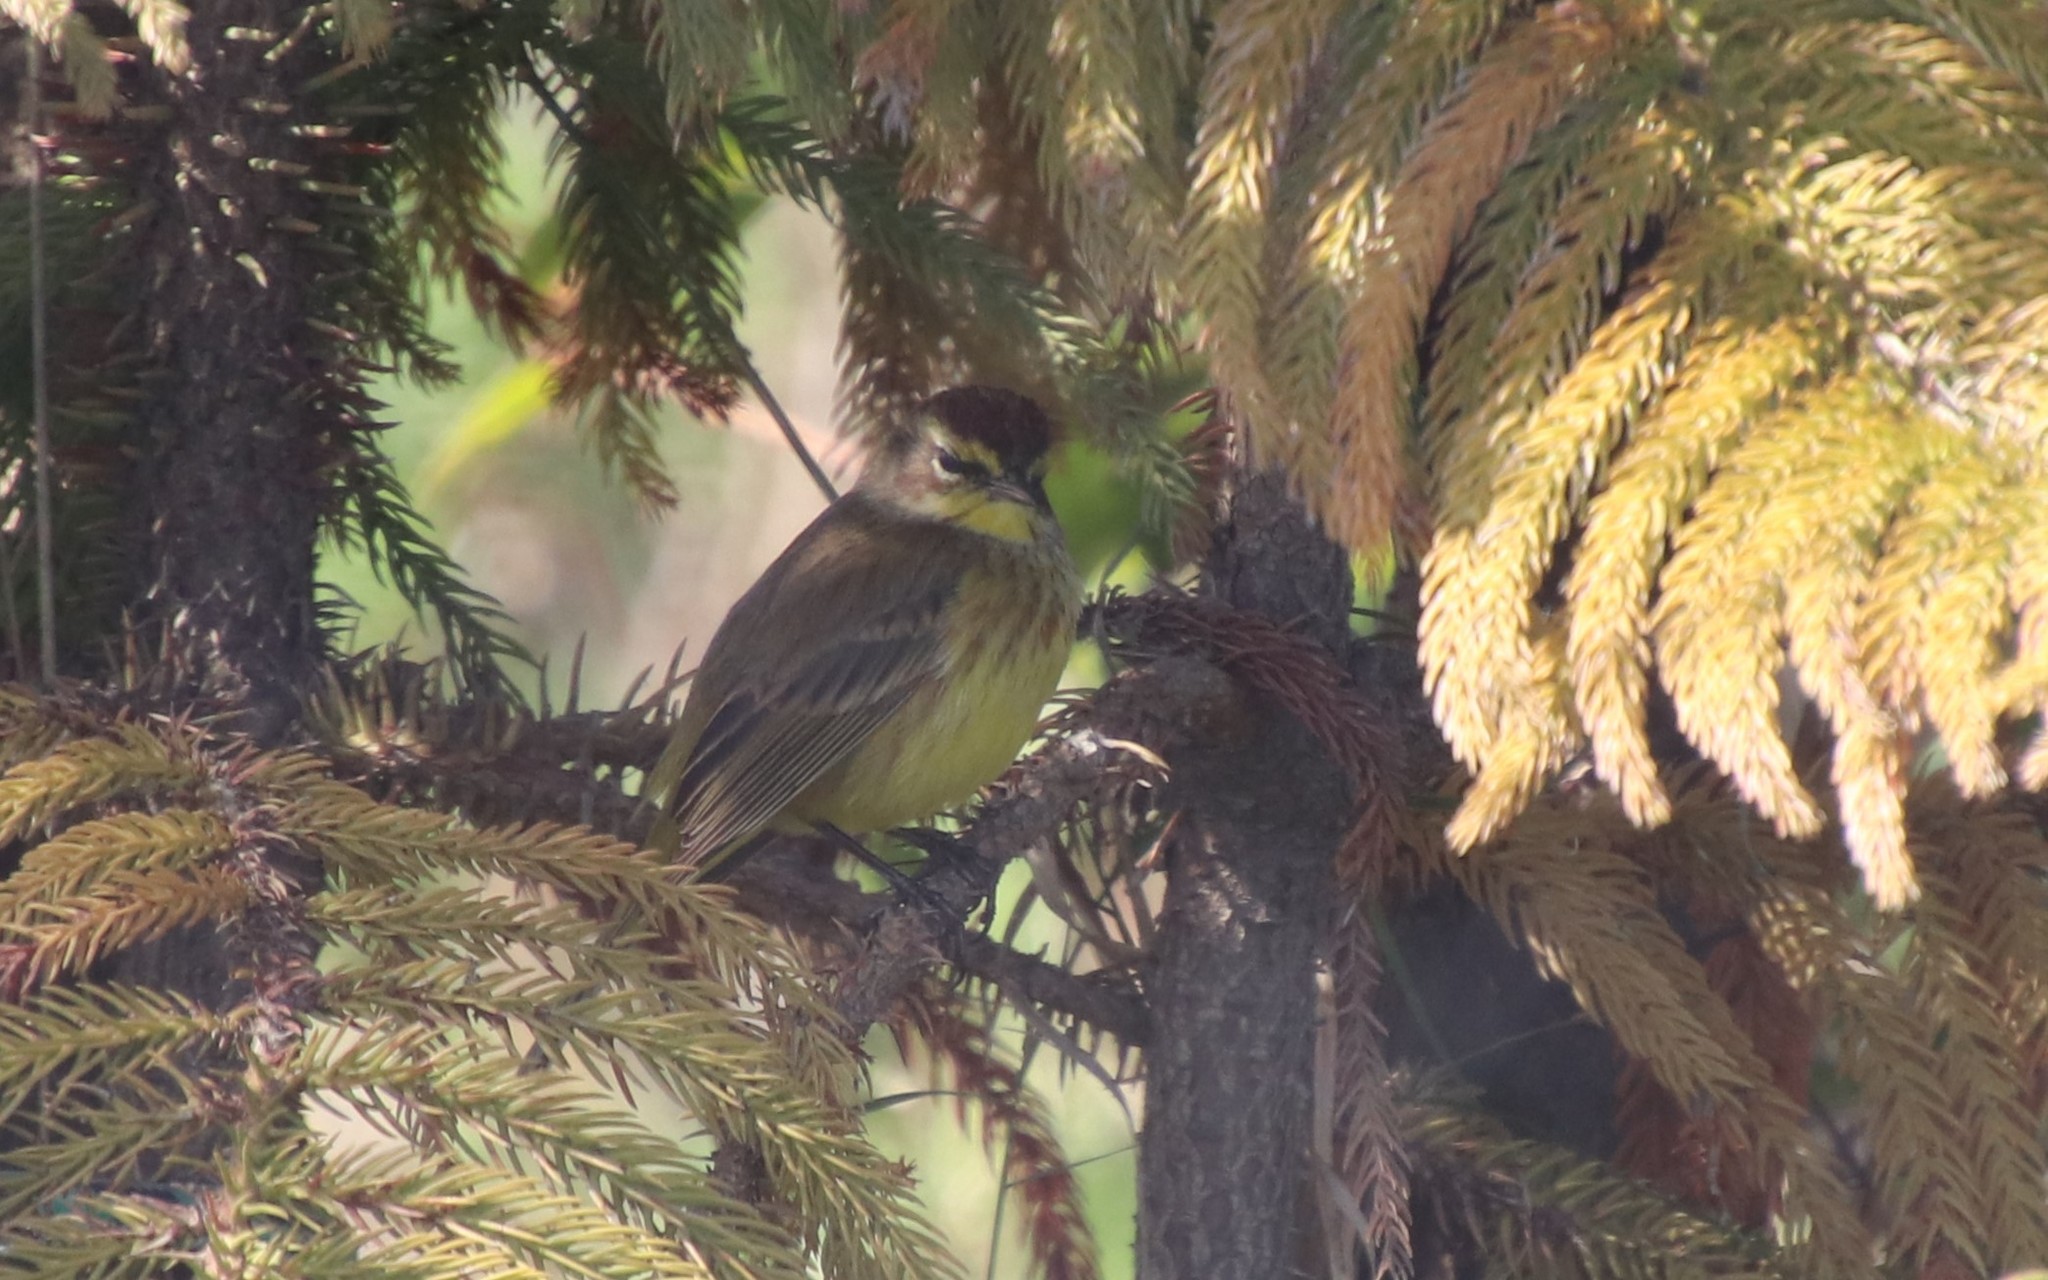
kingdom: Animalia
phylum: Chordata
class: Aves
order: Passeriformes
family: Parulidae
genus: Setophaga
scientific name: Setophaga palmarum
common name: Palm warbler
